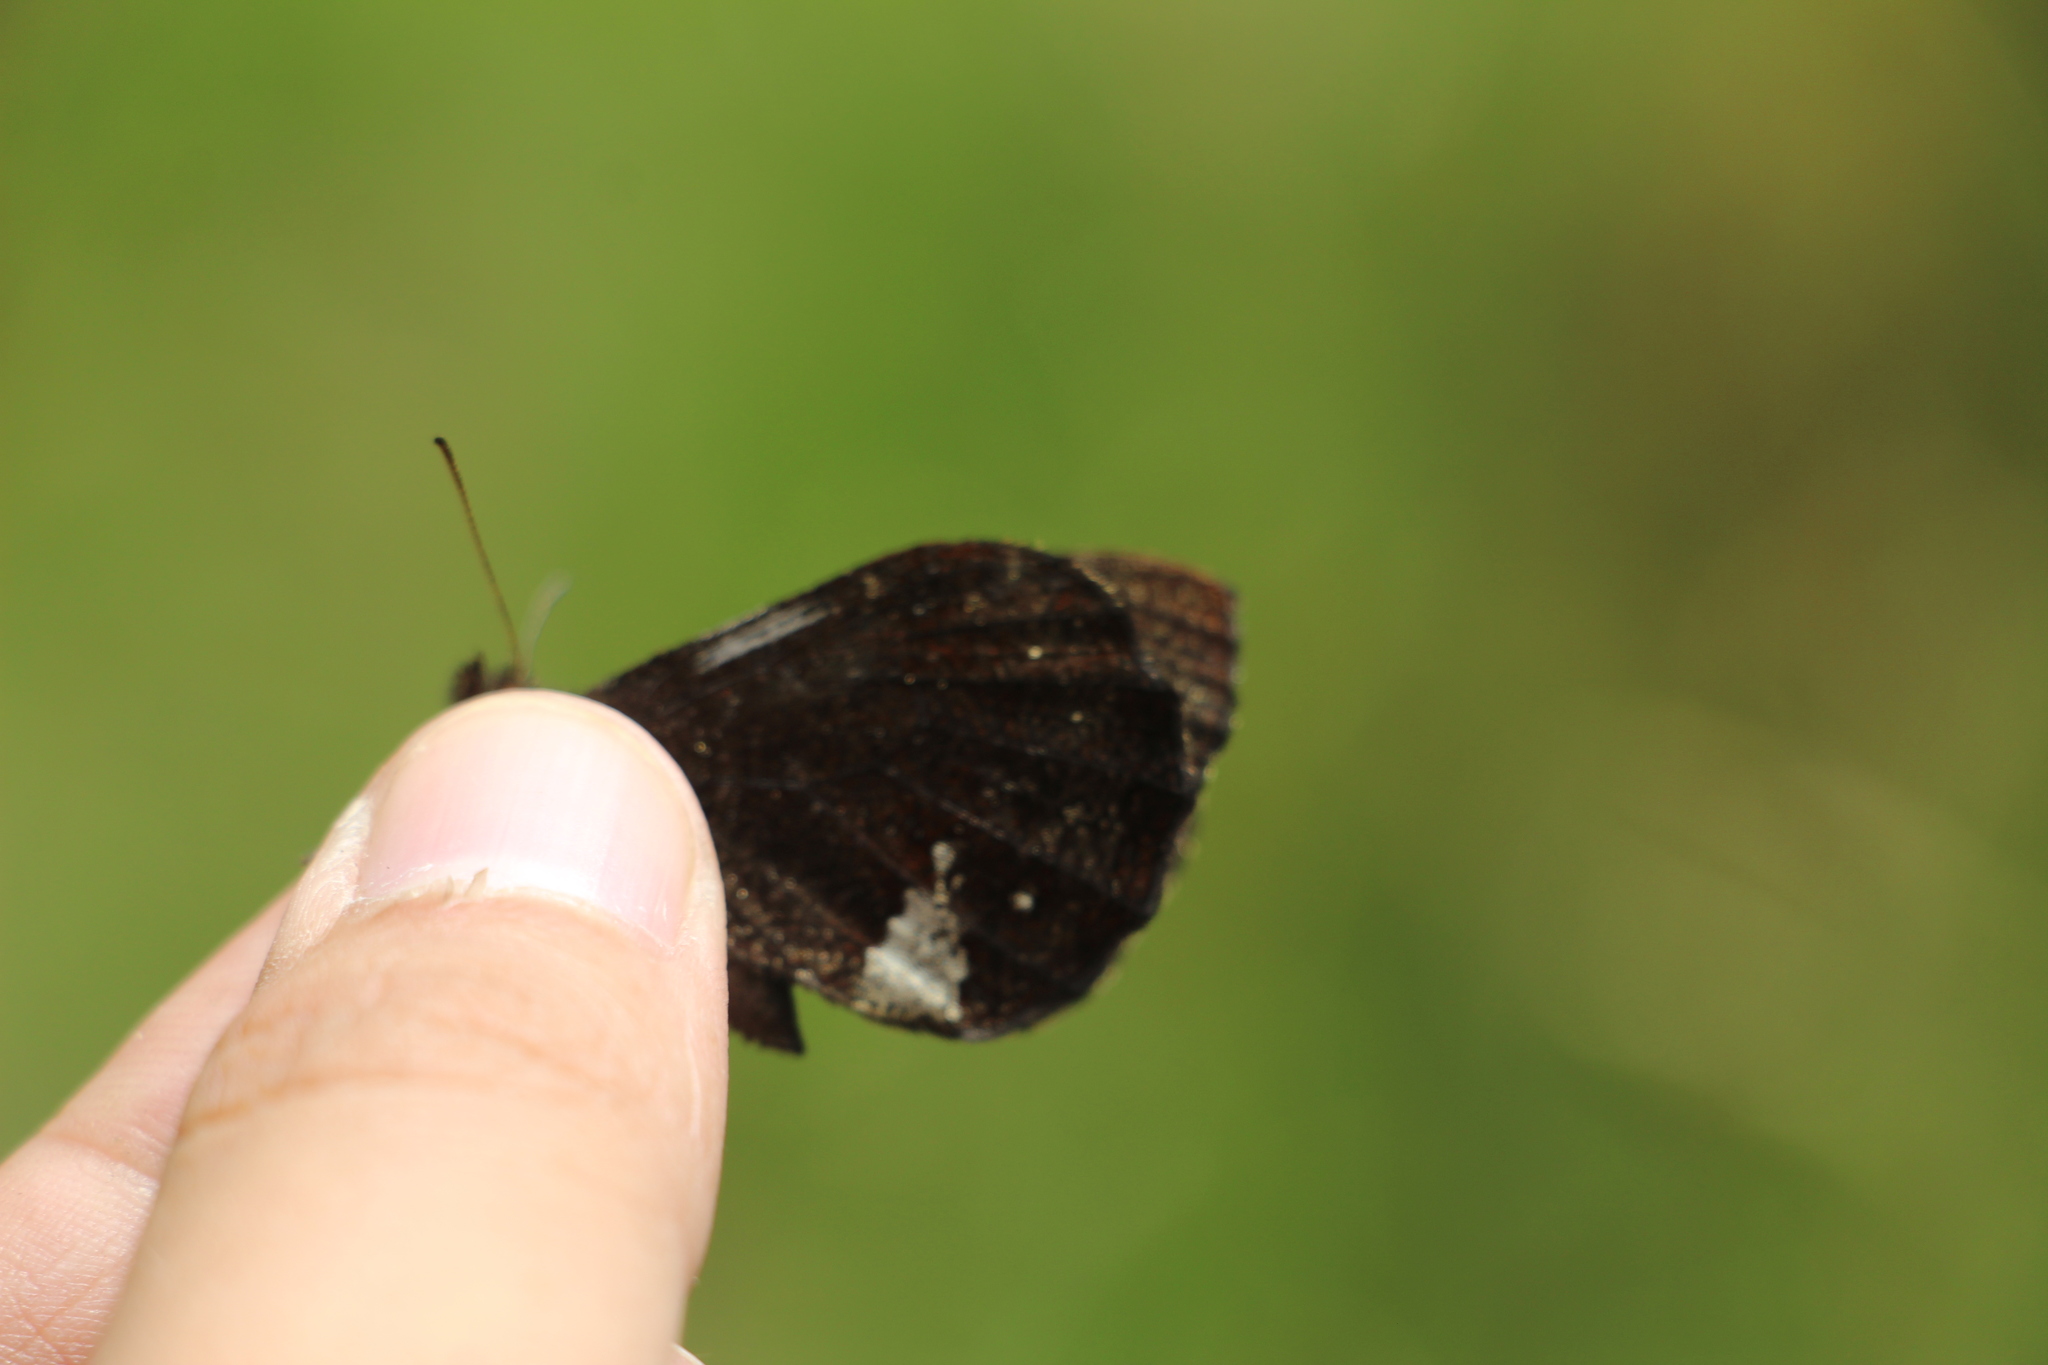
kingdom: Animalia
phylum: Arthropoda
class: Insecta
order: Lepidoptera
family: Nymphalidae
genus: Pedaliodes
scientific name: Pedaliodes prytanis
